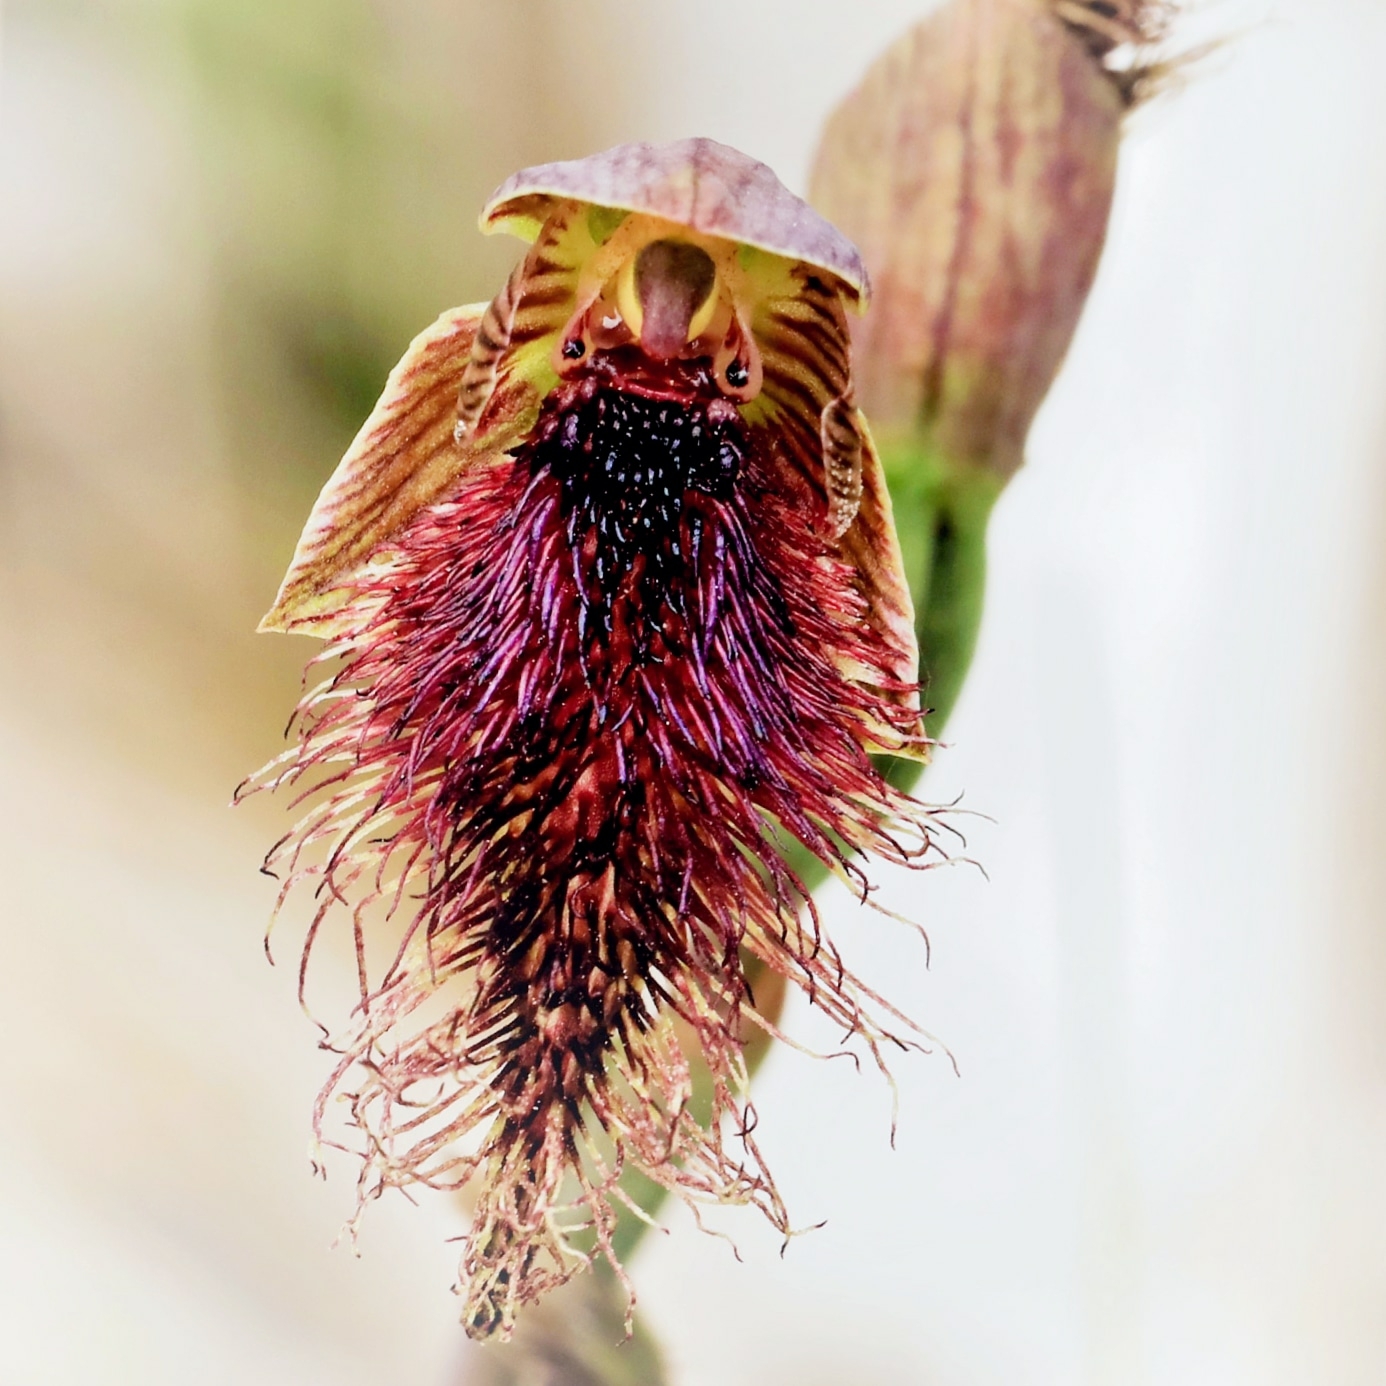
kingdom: Plantae
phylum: Tracheophyta
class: Liliopsida
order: Asparagales
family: Orchidaceae
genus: Calochilus
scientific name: Calochilus robertsonii
